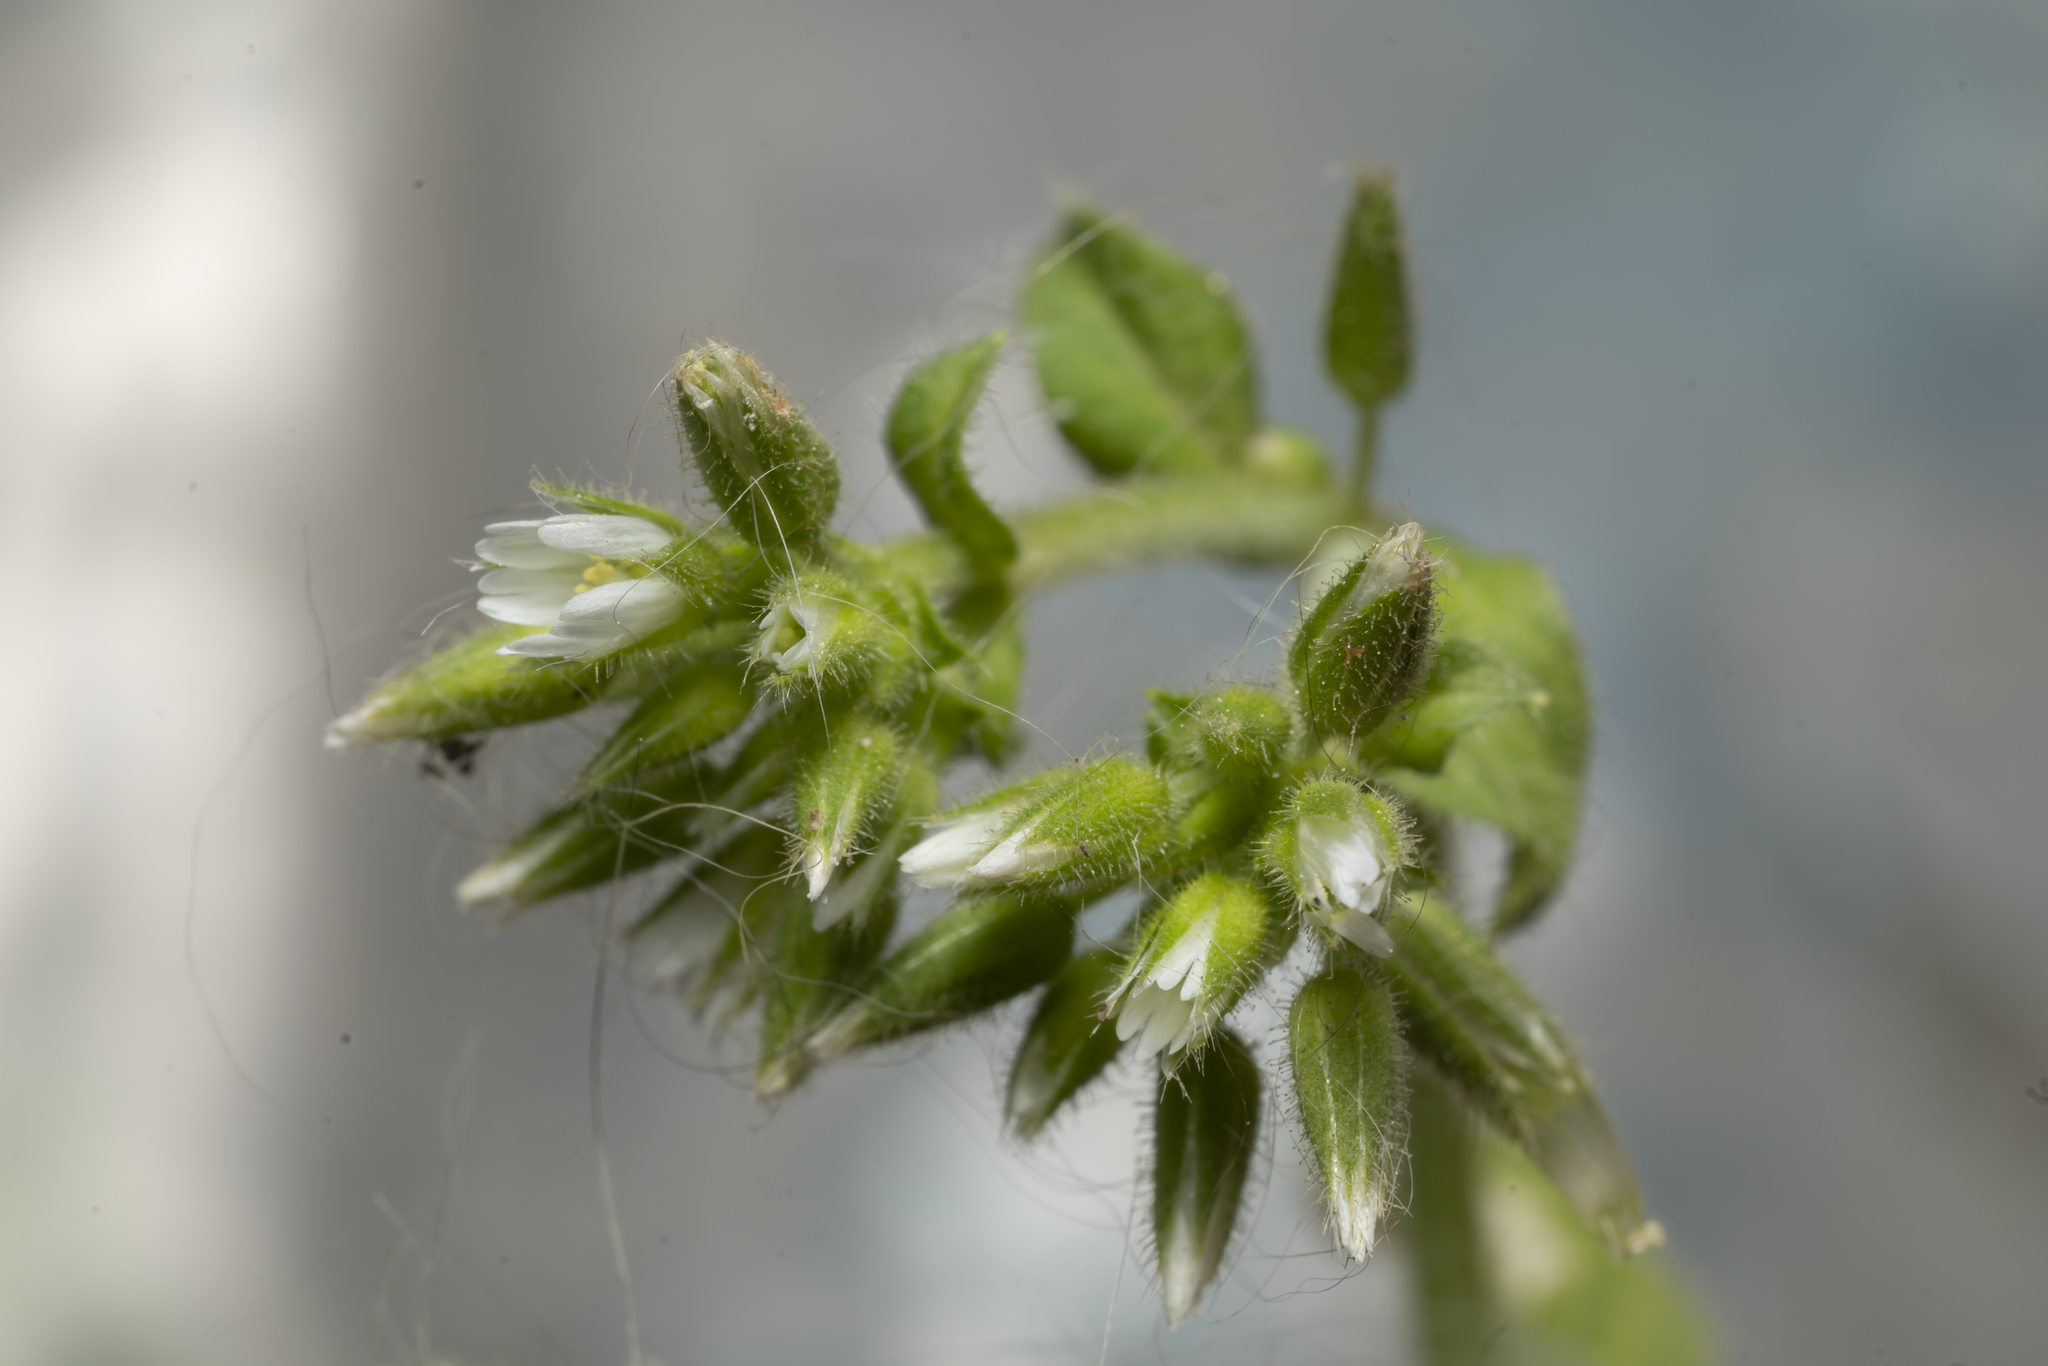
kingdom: Plantae
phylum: Tracheophyta
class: Magnoliopsida
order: Caryophyllales
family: Caryophyllaceae
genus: Cerastium
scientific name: Cerastium glomeratum
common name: Sticky chickweed
